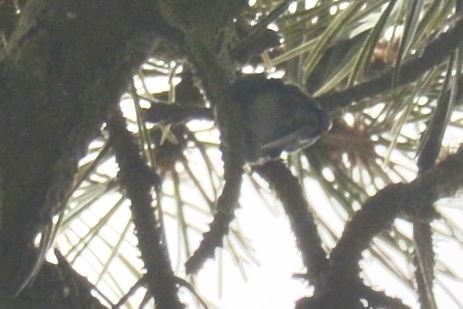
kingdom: Animalia
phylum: Chordata
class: Aves
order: Apodiformes
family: Trochilidae
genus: Calypte
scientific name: Calypte anna
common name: Anna's hummingbird
